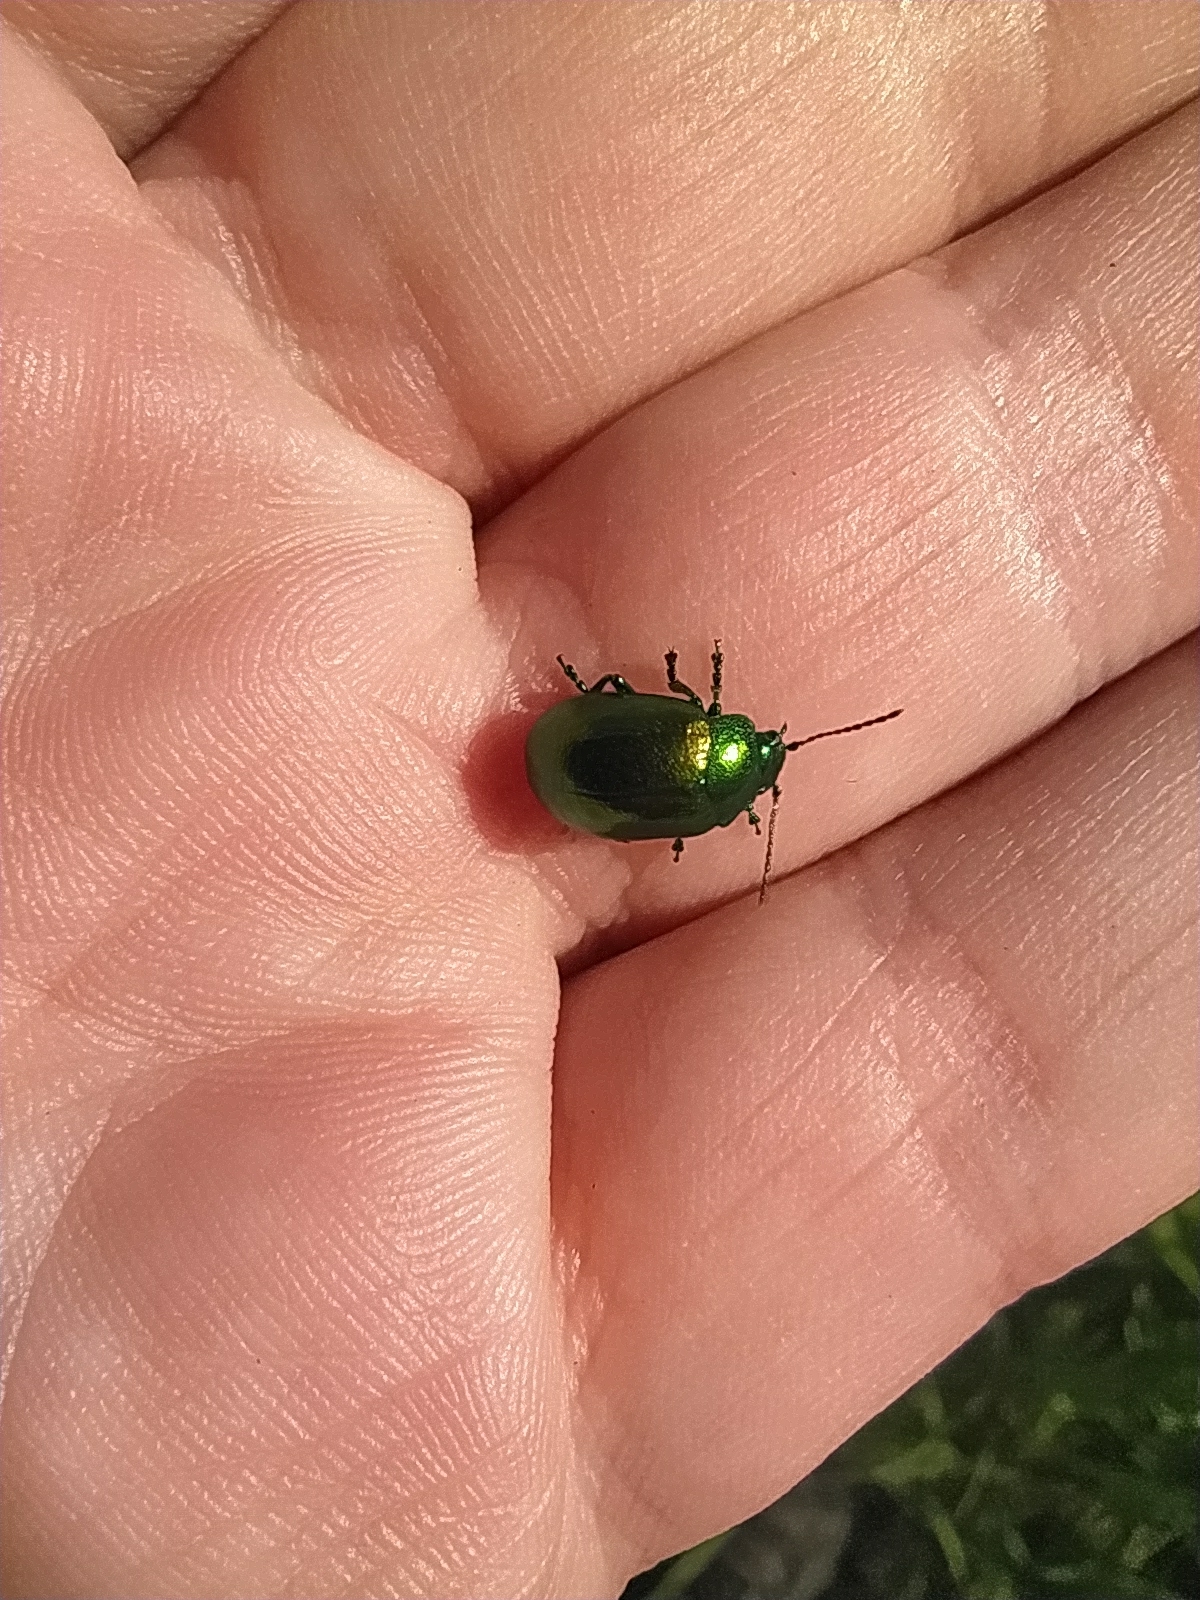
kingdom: Animalia
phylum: Arthropoda
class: Insecta
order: Coleoptera
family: Chrysomelidae
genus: Chrysolina
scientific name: Chrysolina herbacea
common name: Mint leaf beatle
